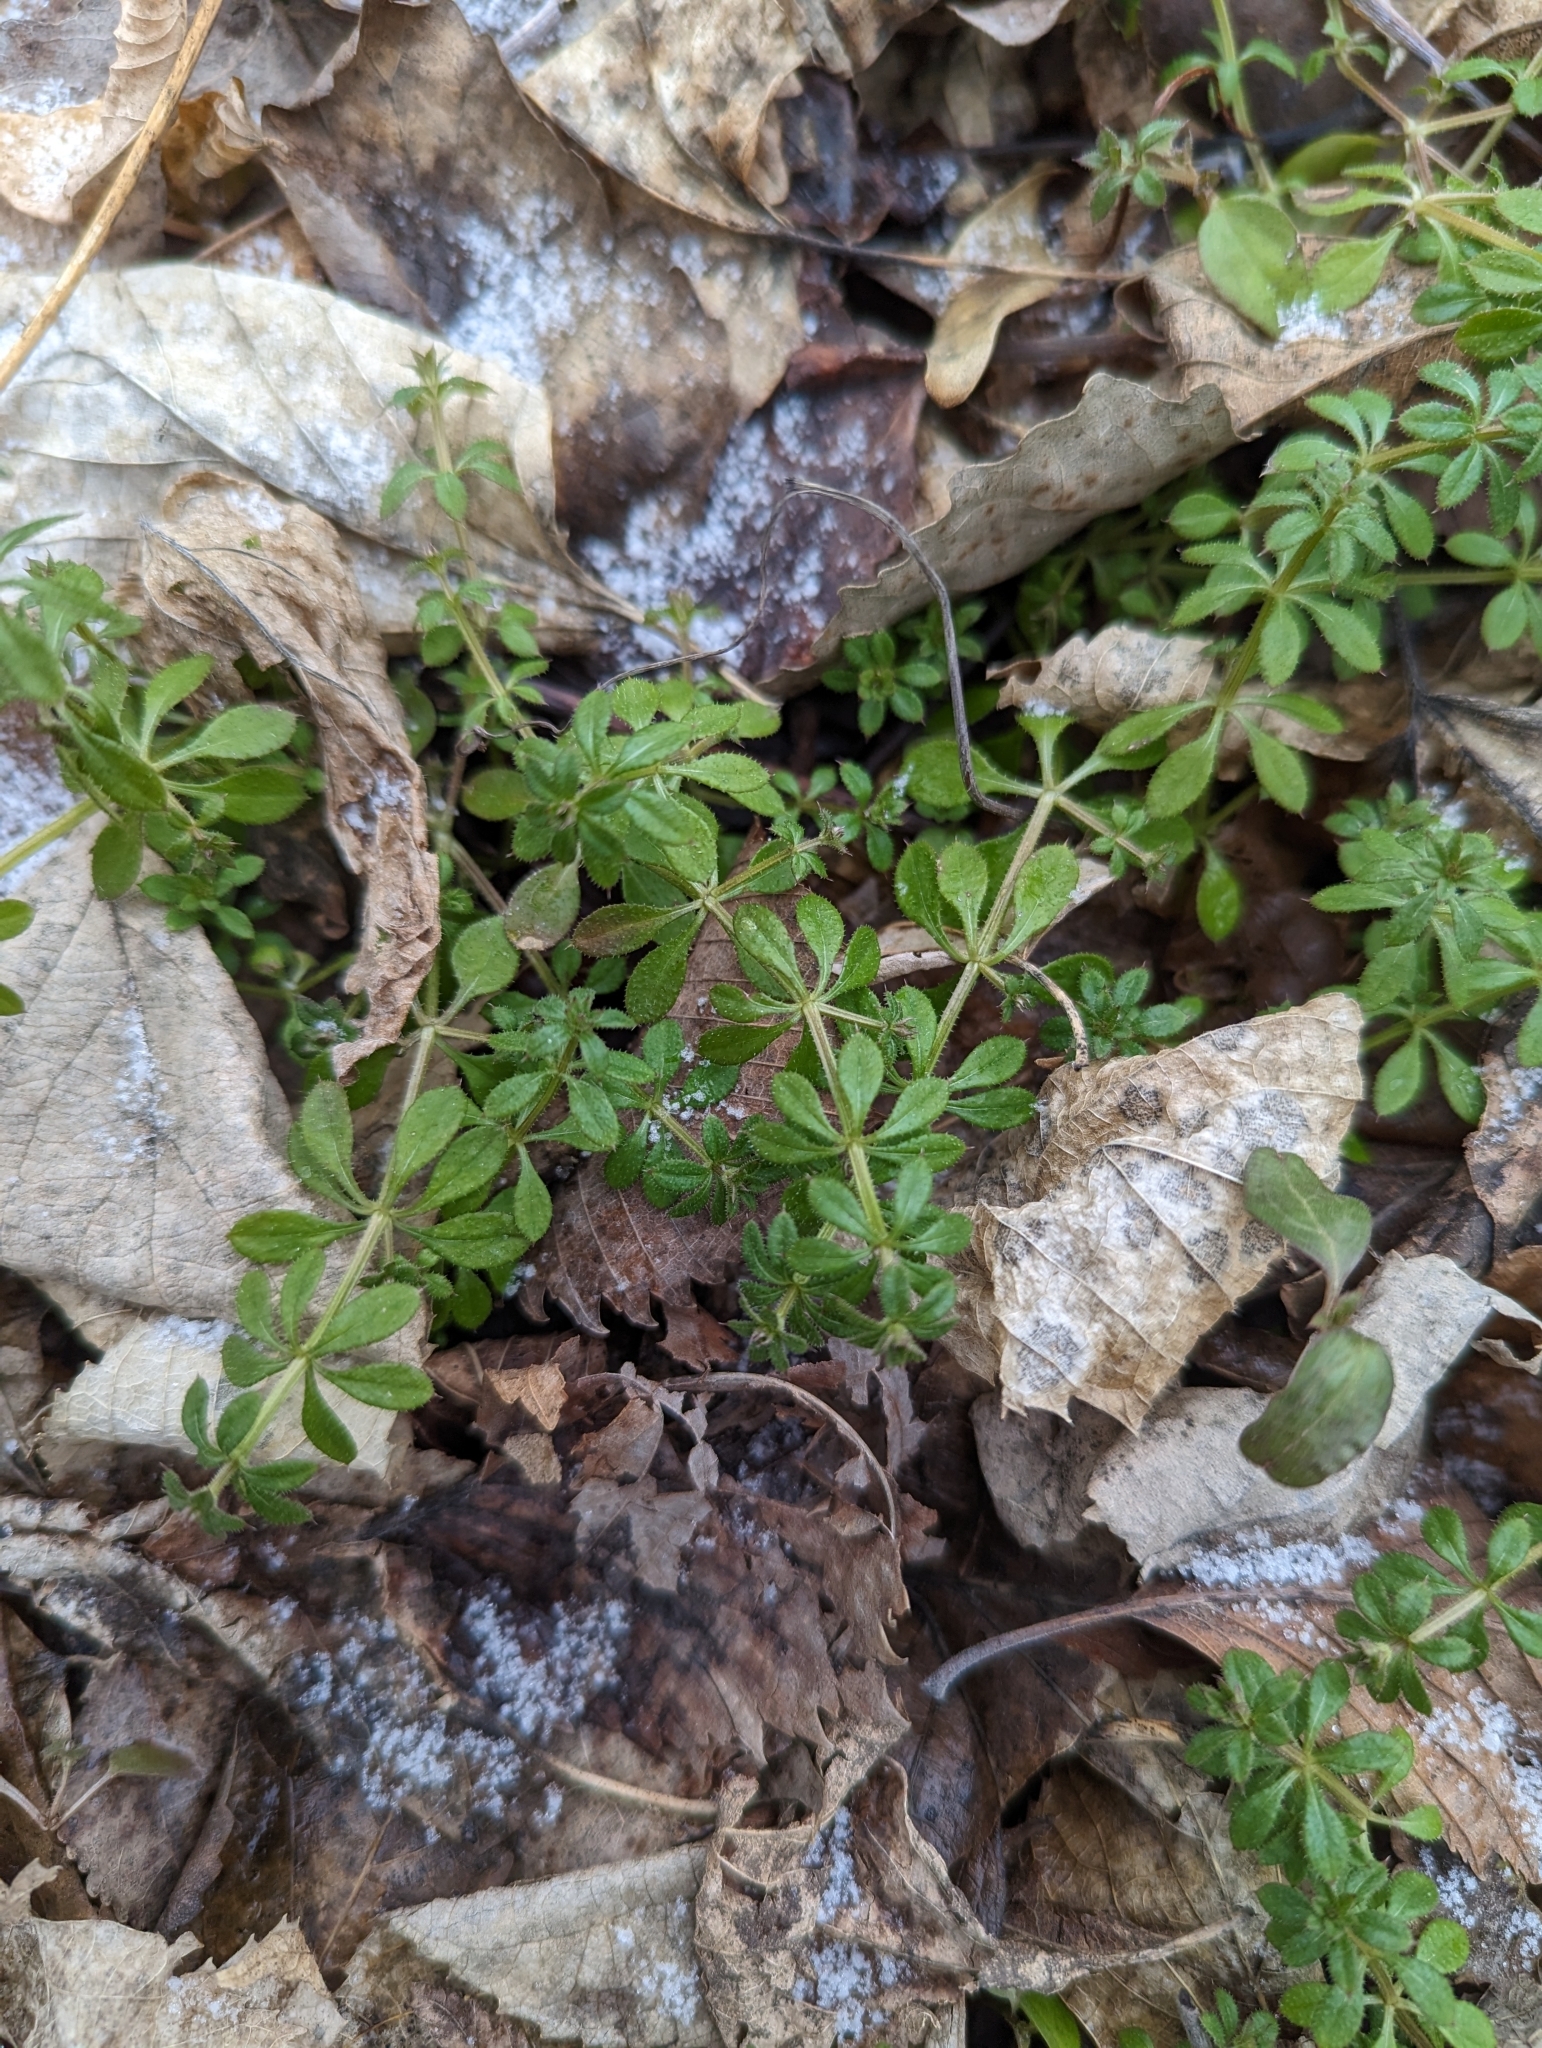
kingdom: Plantae
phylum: Tracheophyta
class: Magnoliopsida
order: Gentianales
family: Rubiaceae
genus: Galium
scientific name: Galium aparine
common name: Cleavers
